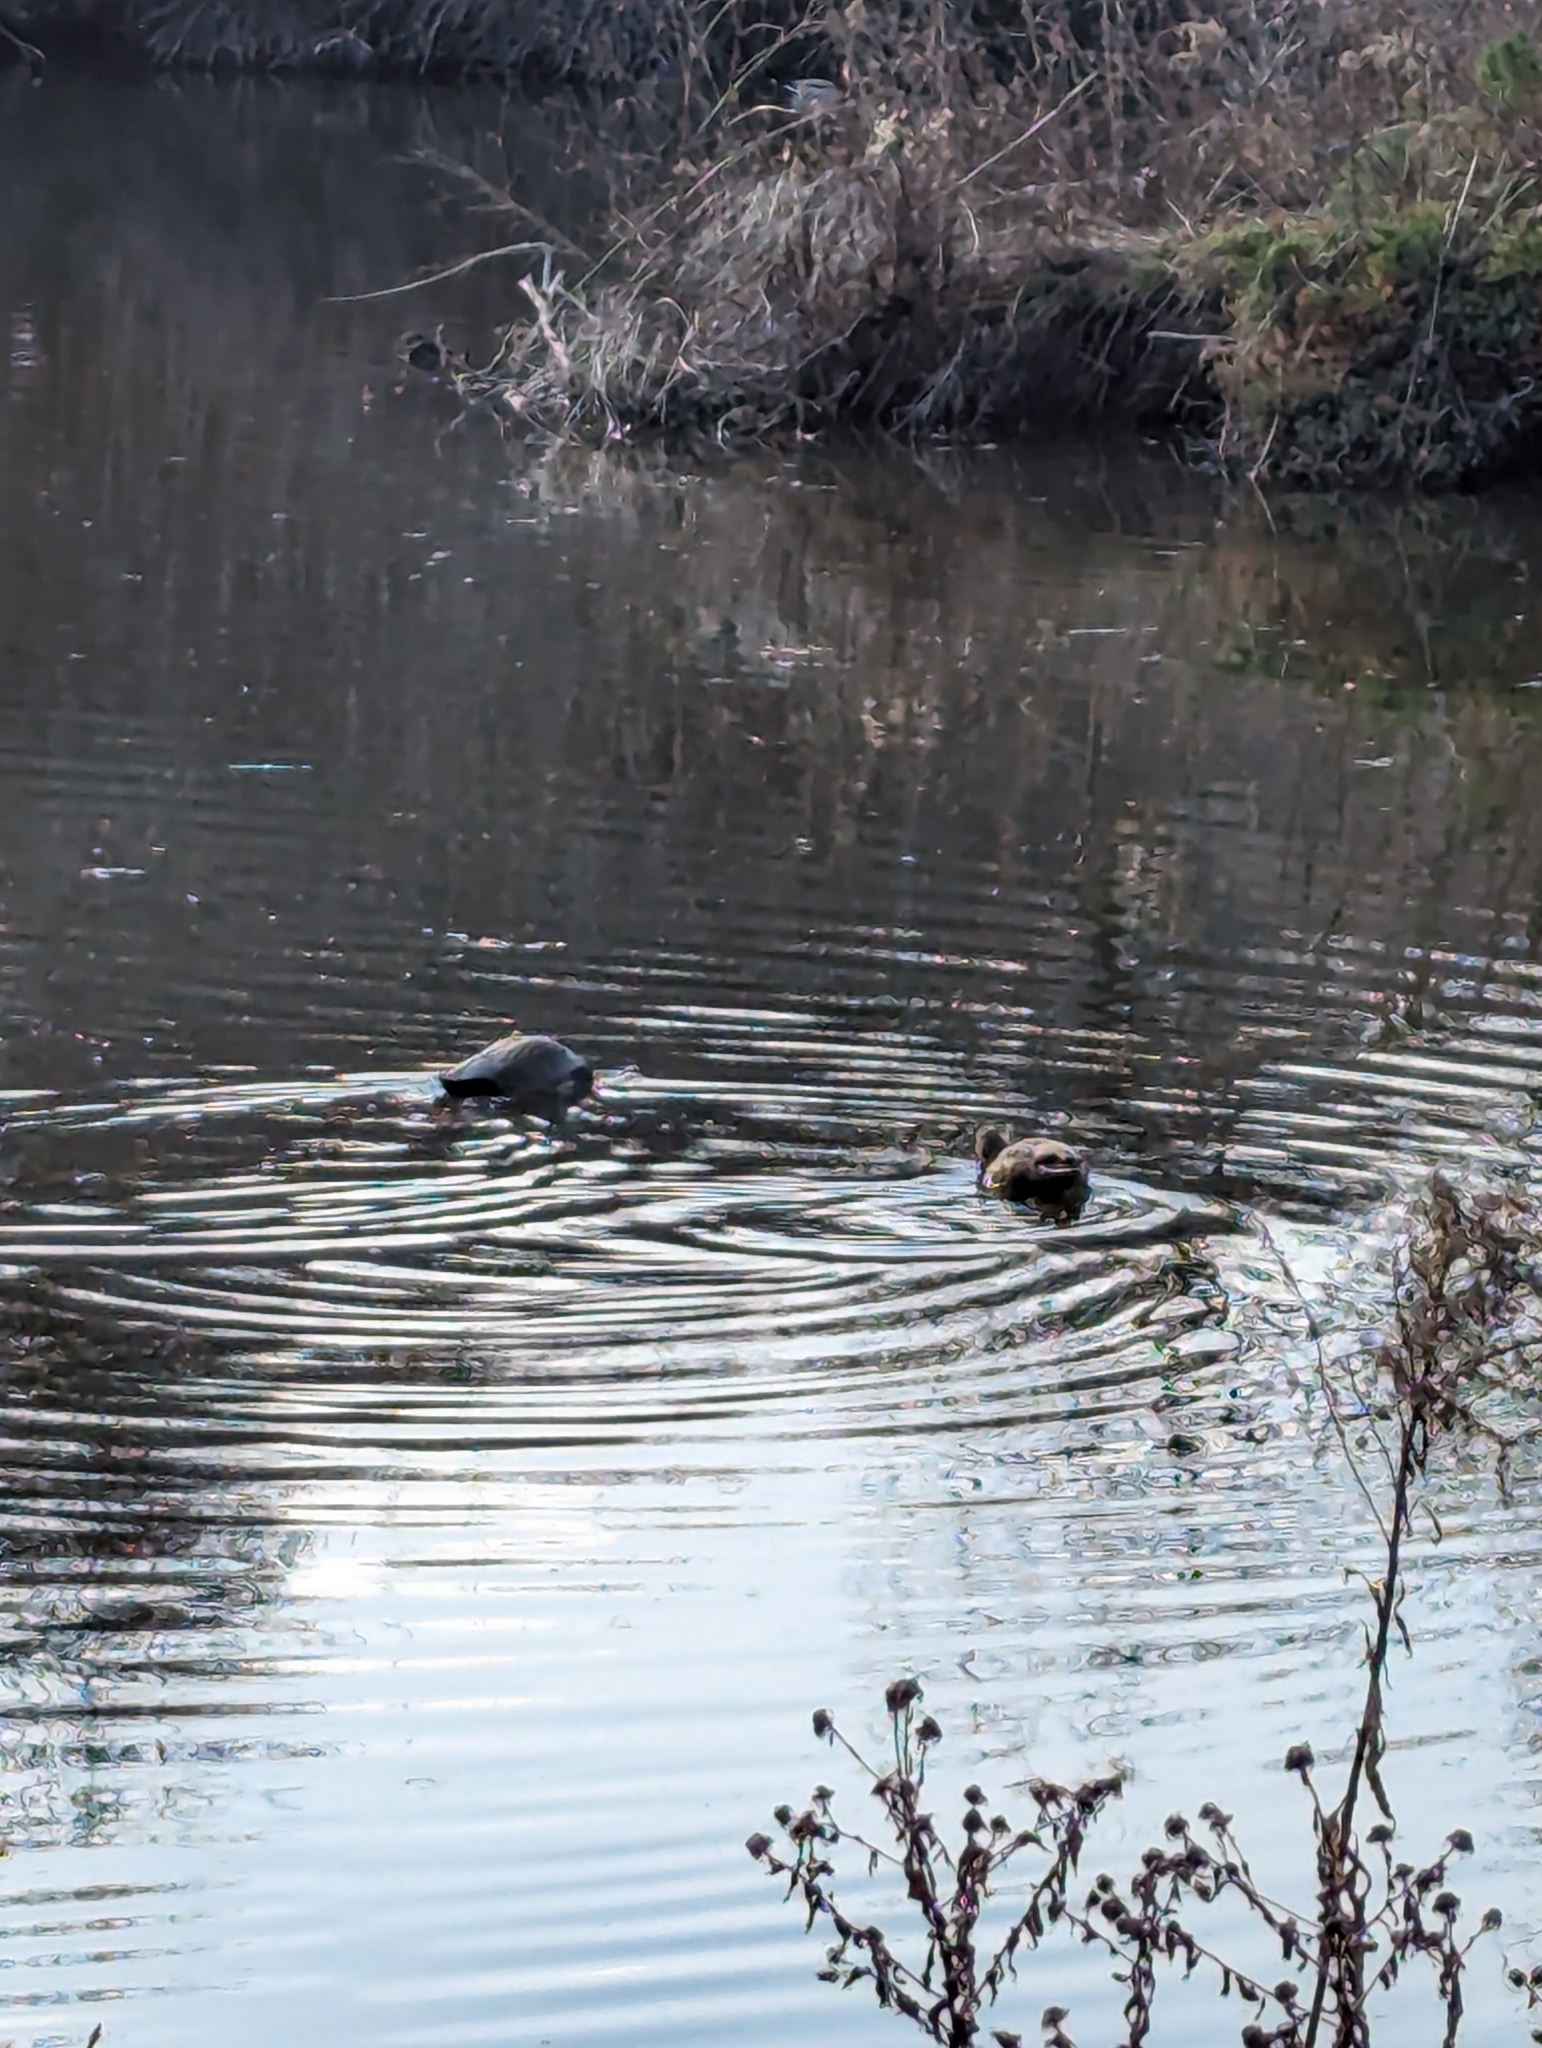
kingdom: Animalia
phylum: Chordata
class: Aves
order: Anseriformes
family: Anatidae
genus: Mareca
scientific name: Mareca strepera
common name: Gadwall
